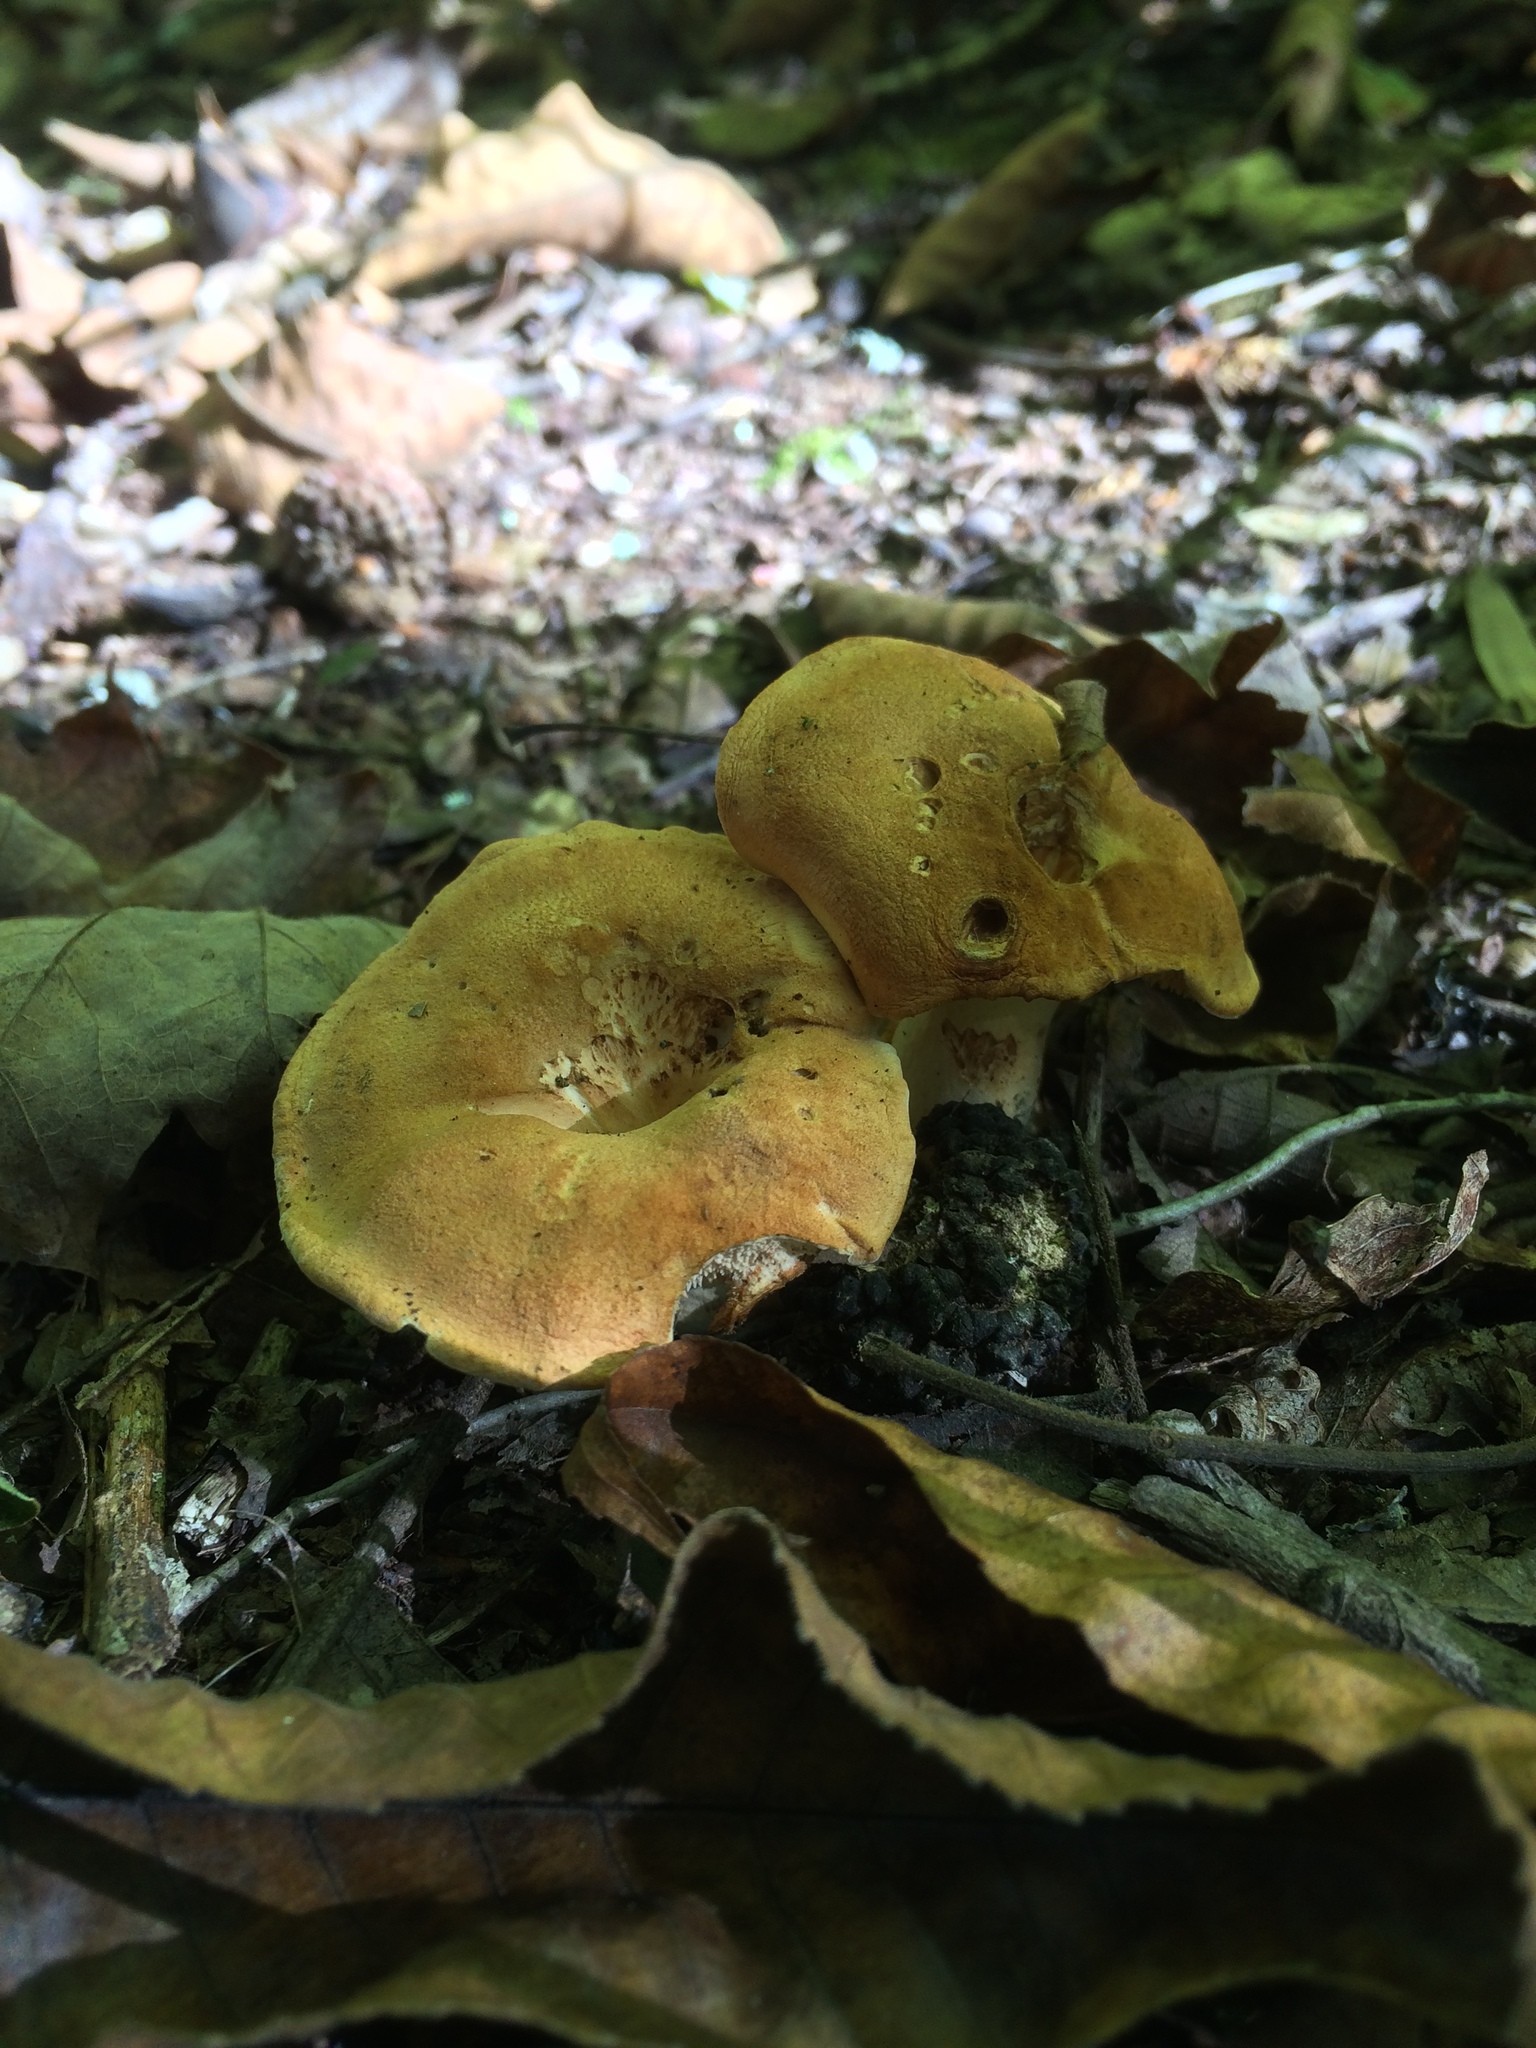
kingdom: Fungi
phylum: Basidiomycota
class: Agaricomycetes
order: Cantharellales
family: Hydnaceae
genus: Hydnum
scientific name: Hydnum cuspidatum
